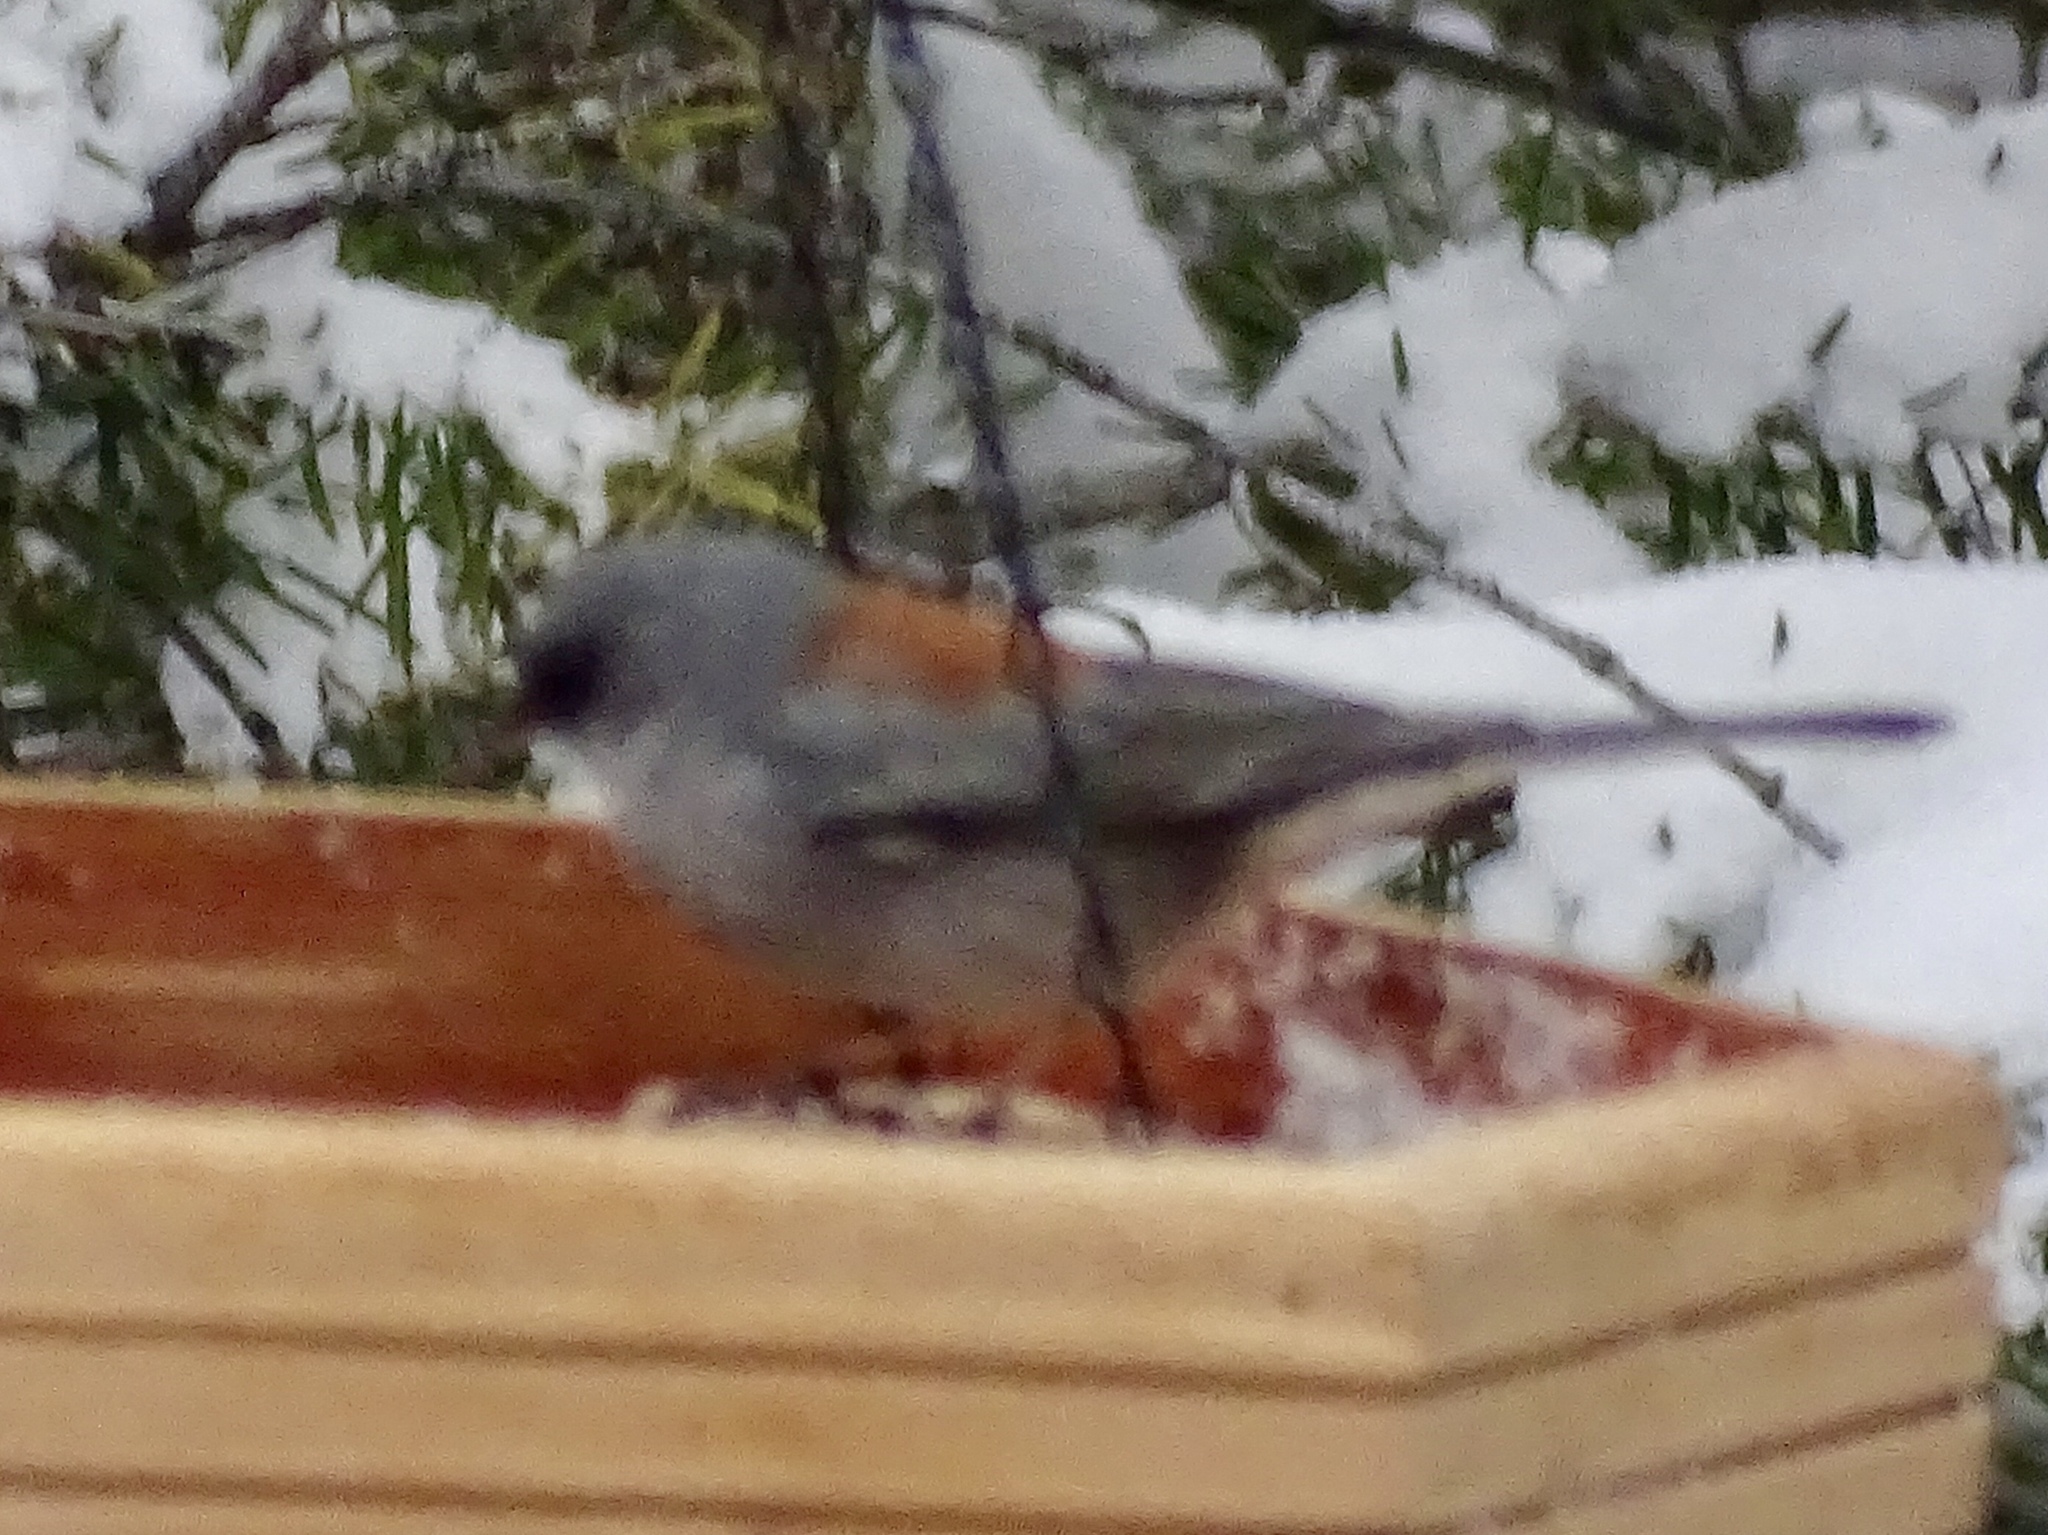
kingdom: Animalia
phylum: Chordata
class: Aves
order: Passeriformes
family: Passerellidae
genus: Junco
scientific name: Junco hyemalis
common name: Dark-eyed junco
